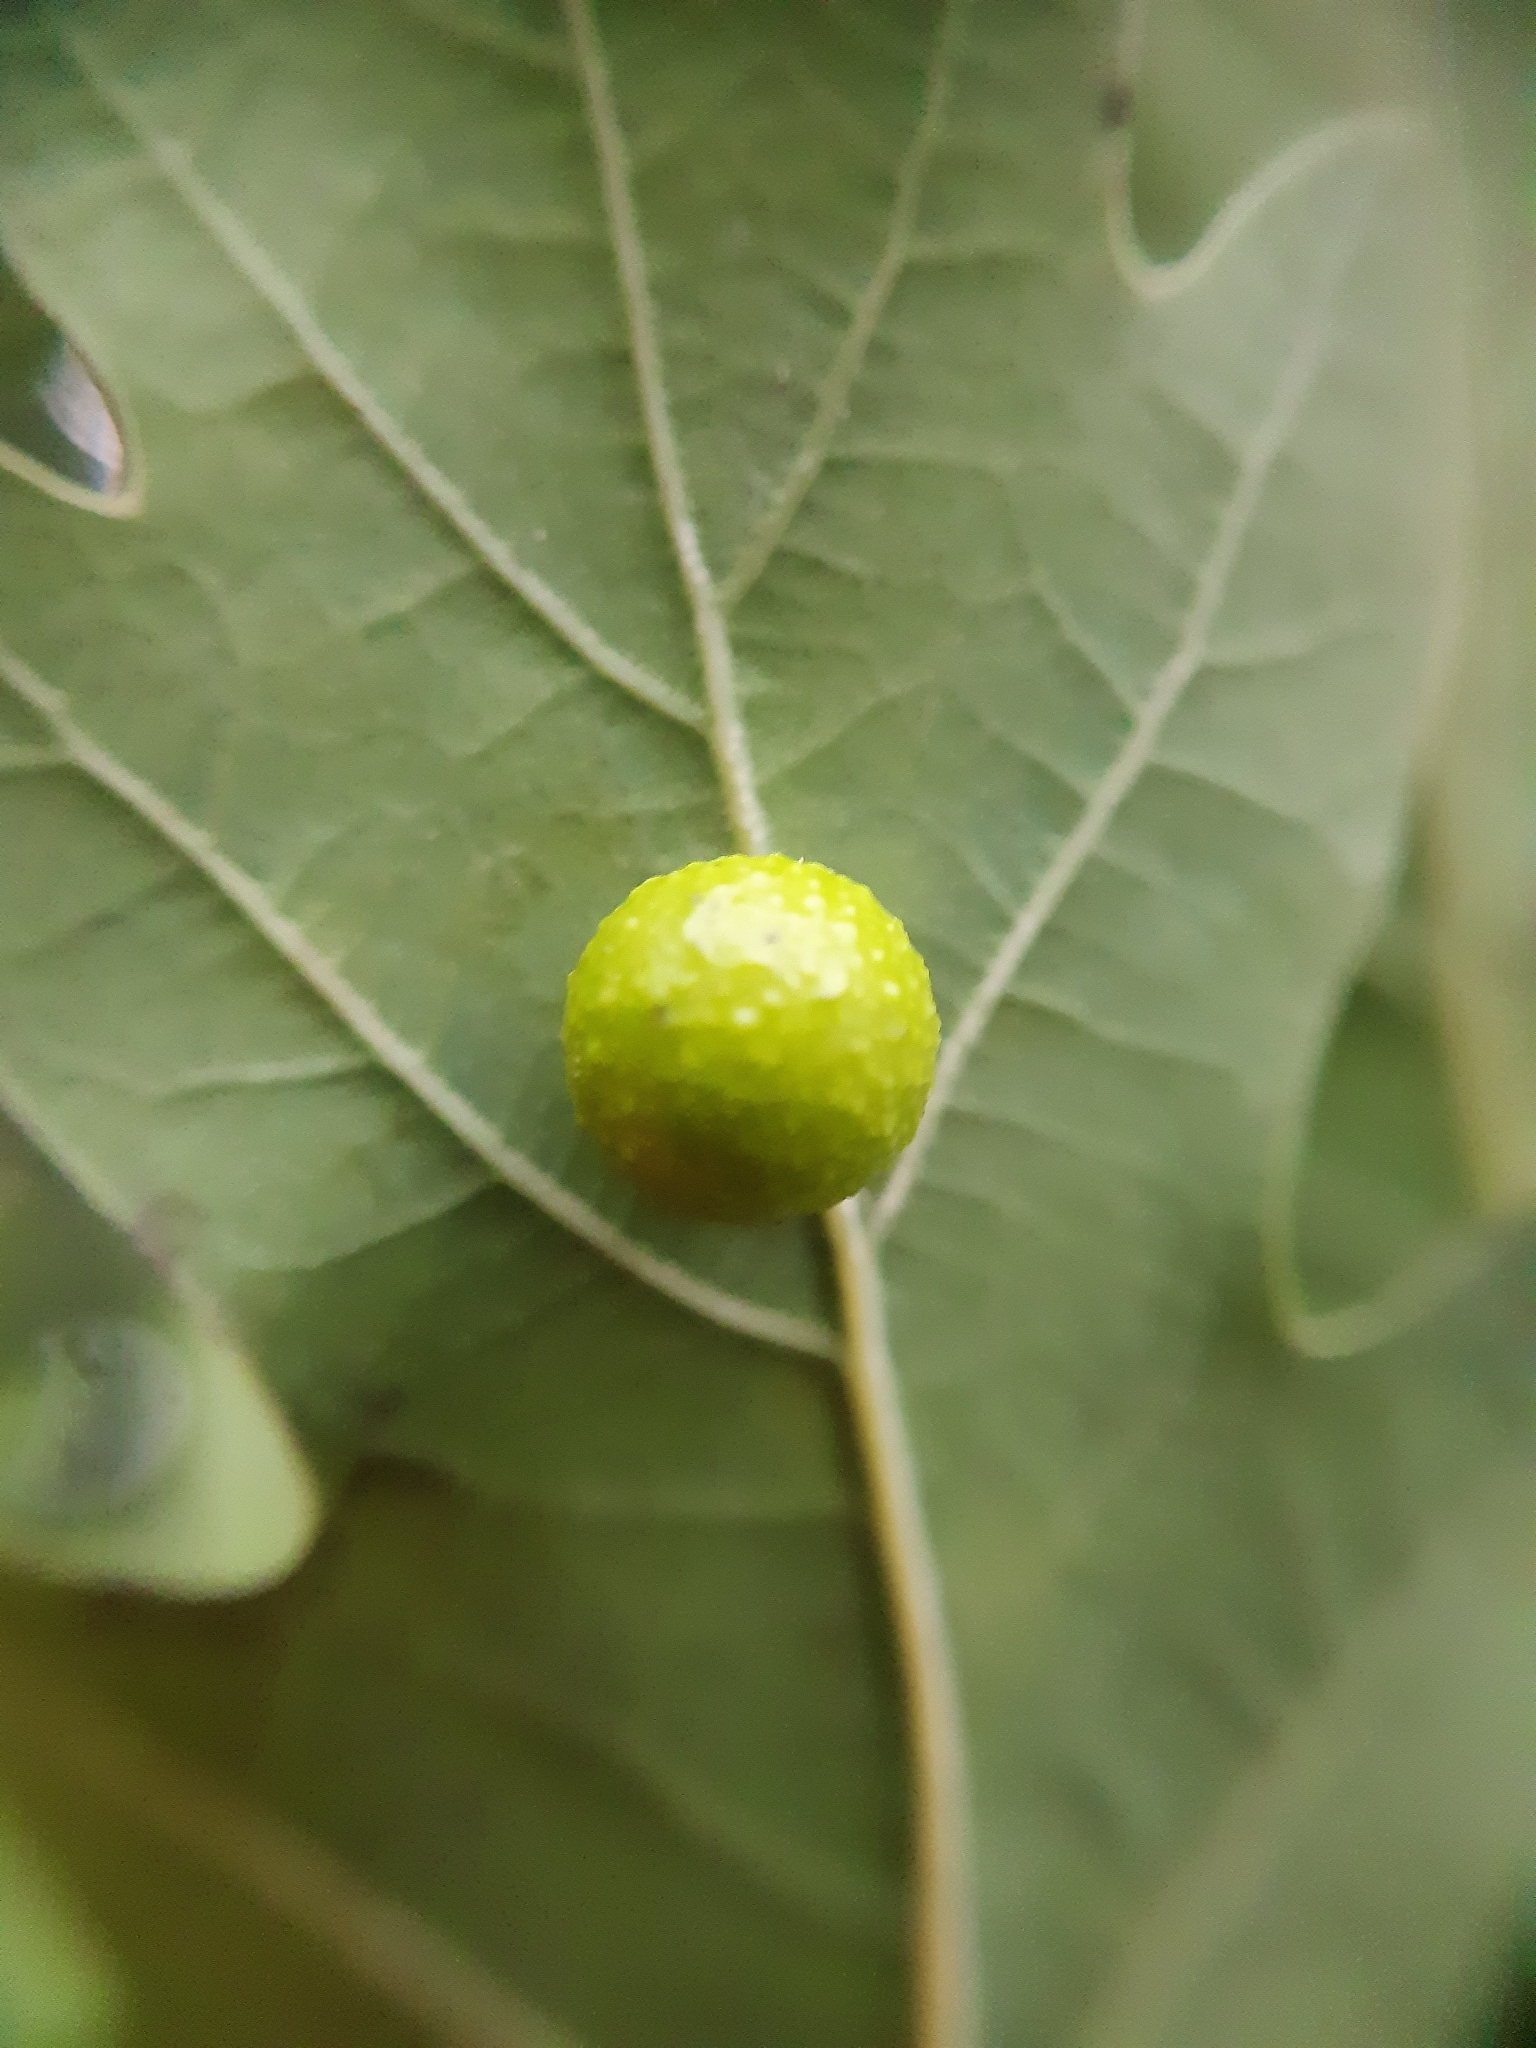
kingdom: Animalia
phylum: Arthropoda
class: Insecta
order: Hymenoptera
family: Cynipidae
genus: Cynips
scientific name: Cynips quercusfolii
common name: Cherry gall
